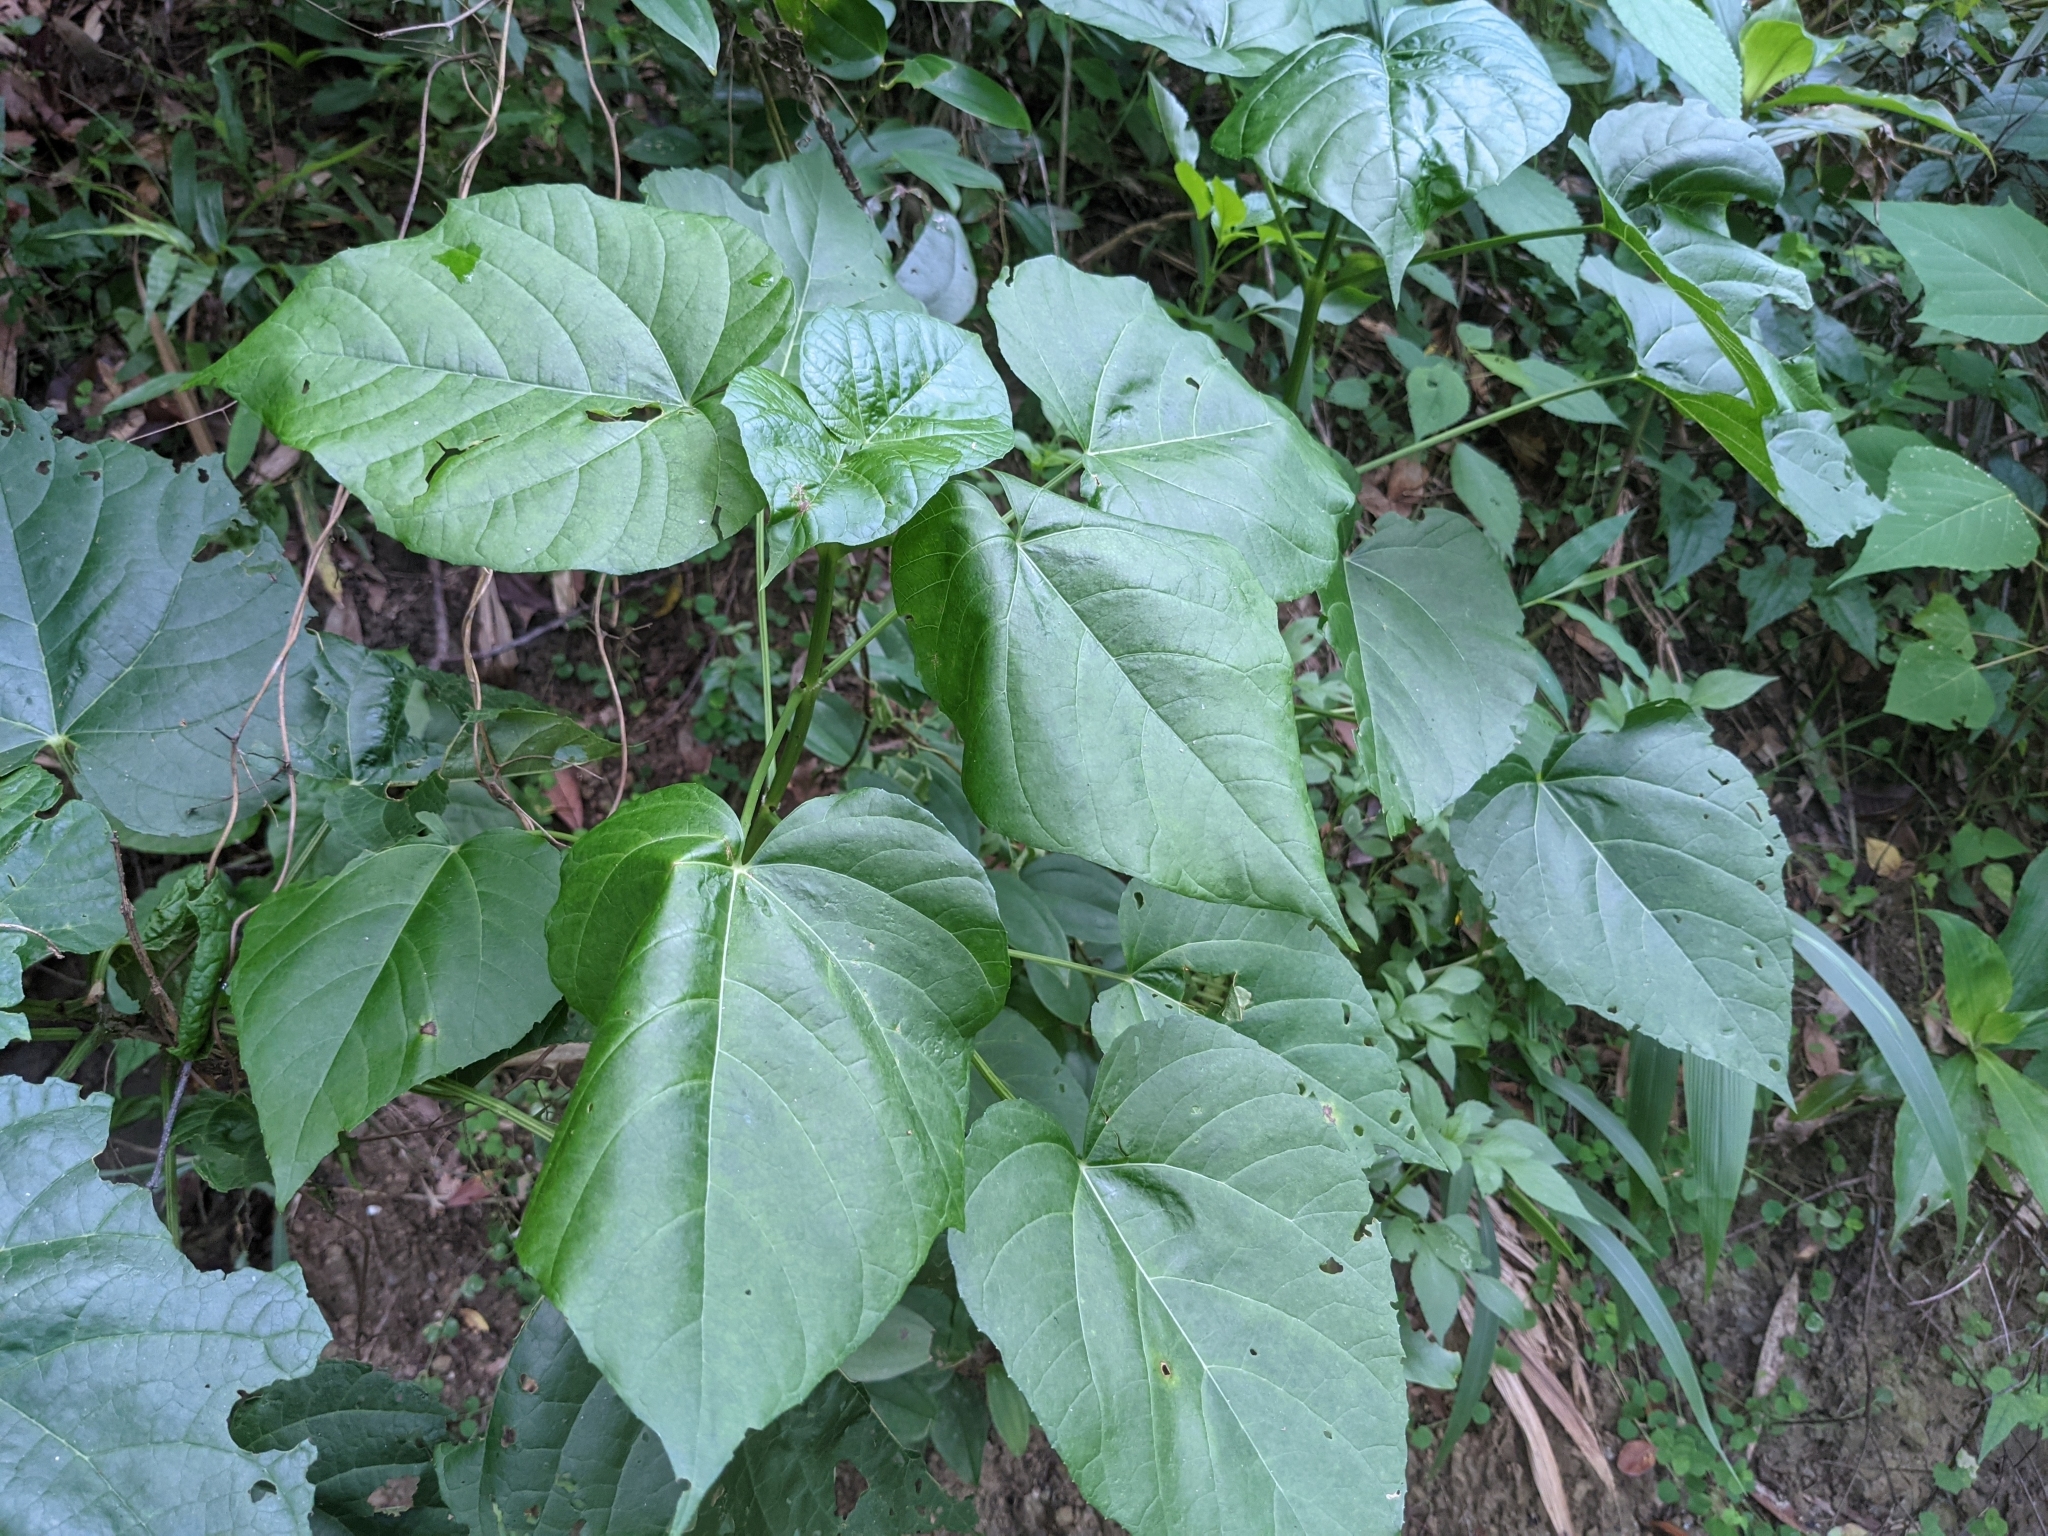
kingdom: Plantae
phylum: Tracheophyta
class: Magnoliopsida
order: Lamiales
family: Lamiaceae
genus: Clerodendrum
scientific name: Clerodendrum japonicum
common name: Japanese glorybower
